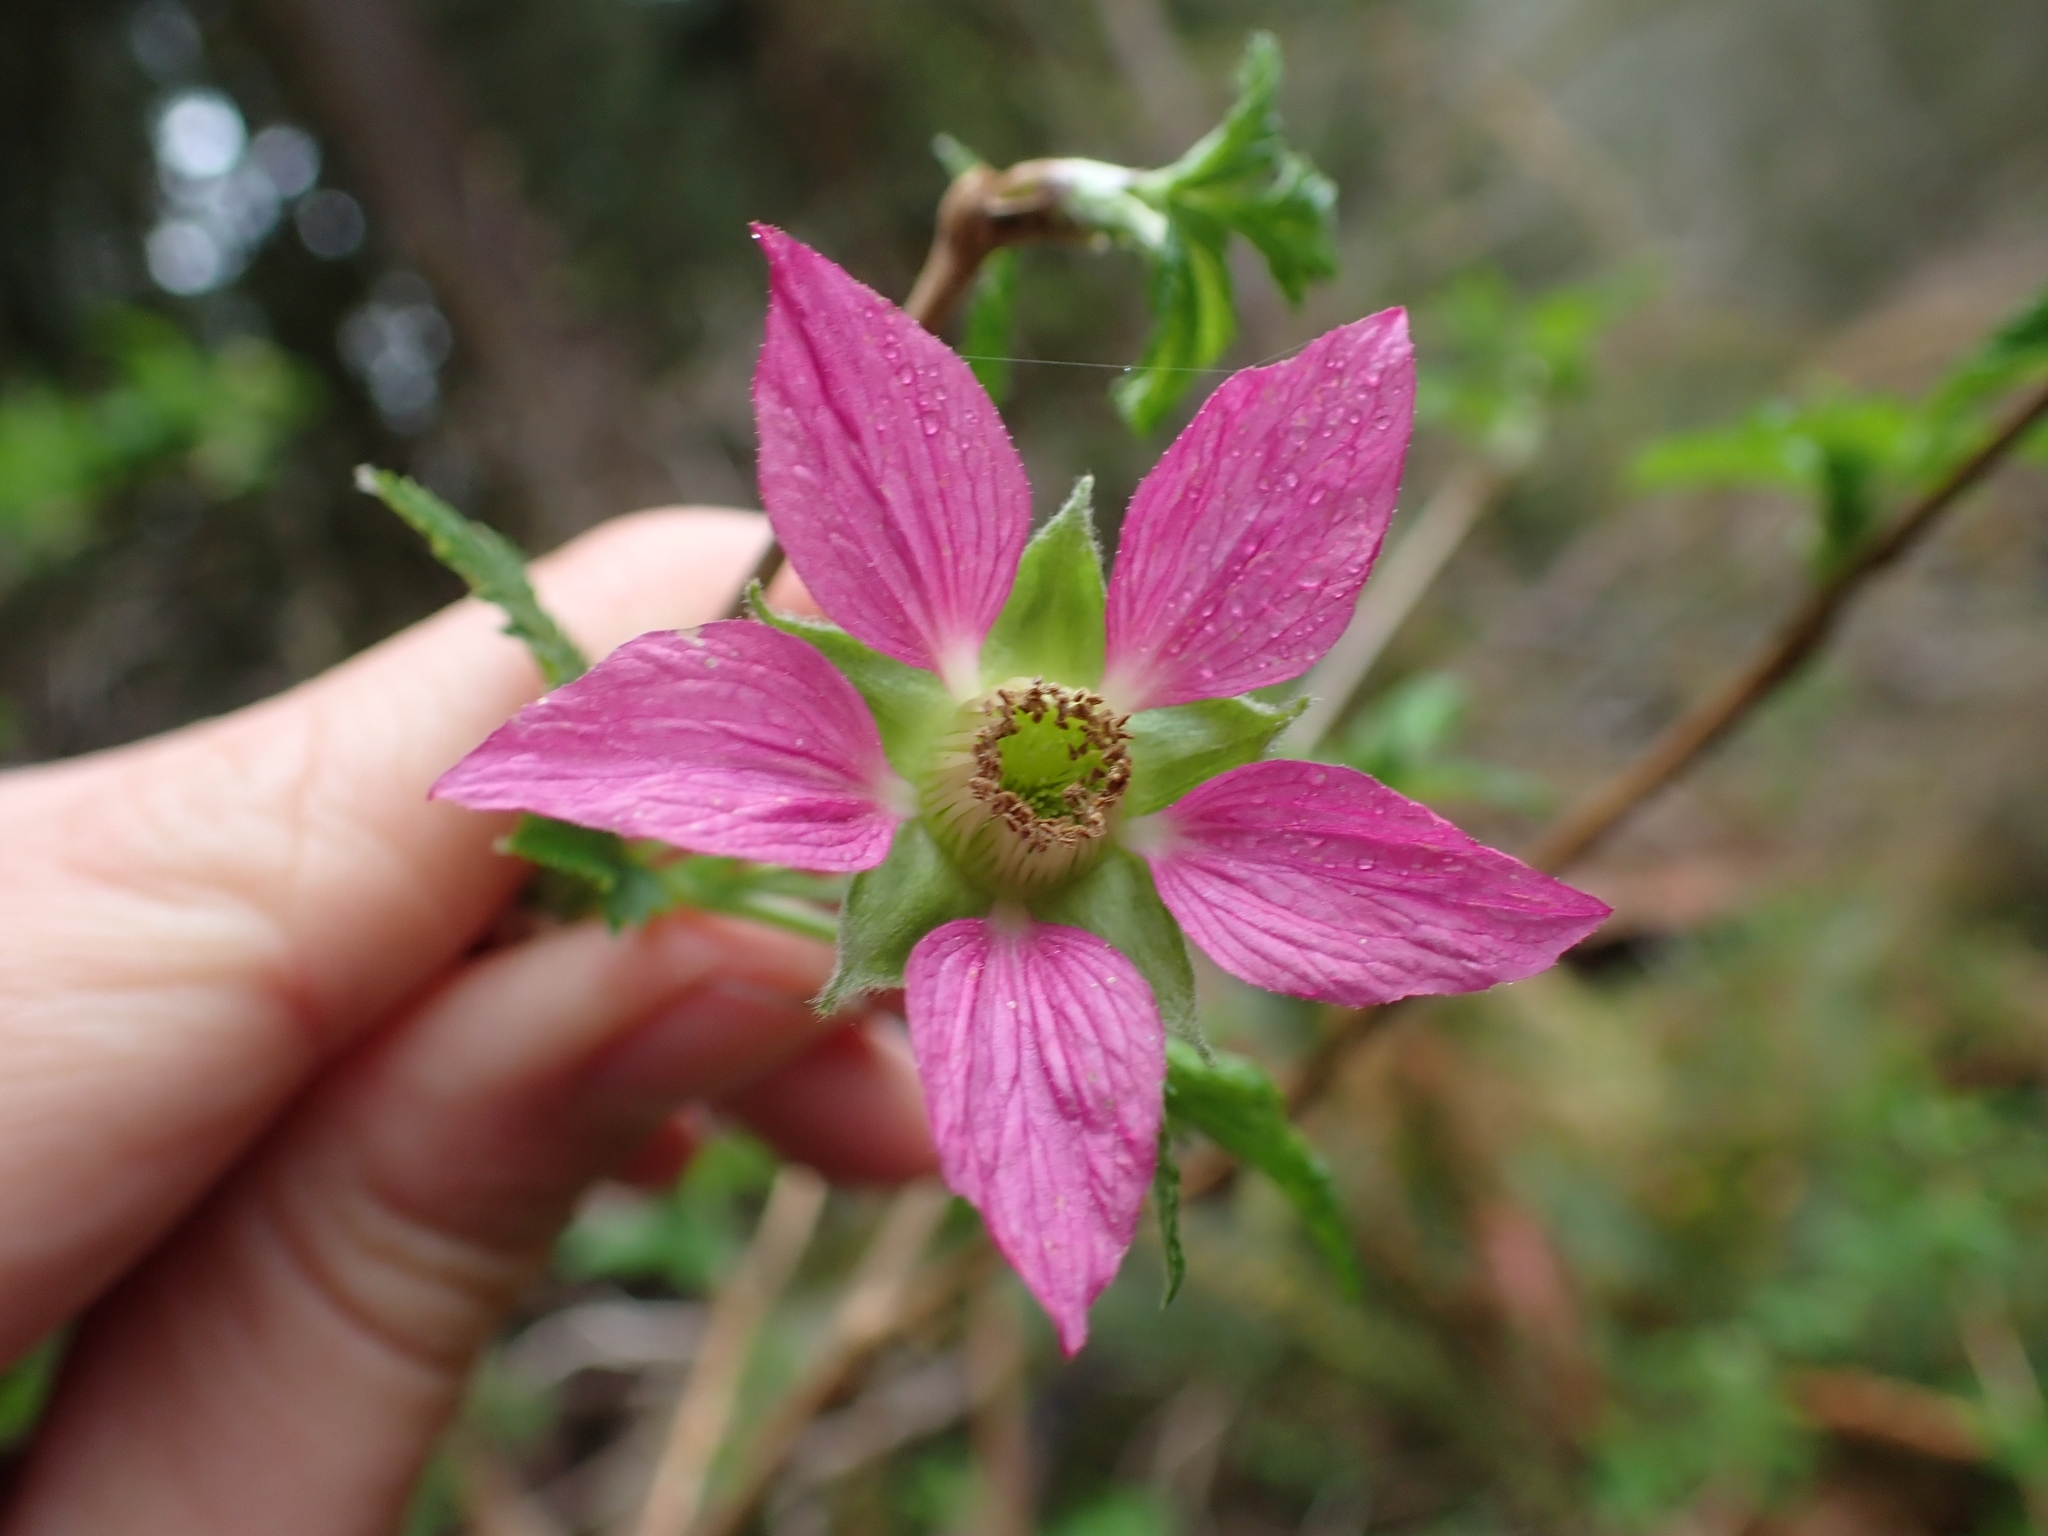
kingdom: Plantae
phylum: Tracheophyta
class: Magnoliopsida
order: Rosales
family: Rosaceae
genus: Rubus
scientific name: Rubus spectabilis
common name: Salmonberry
